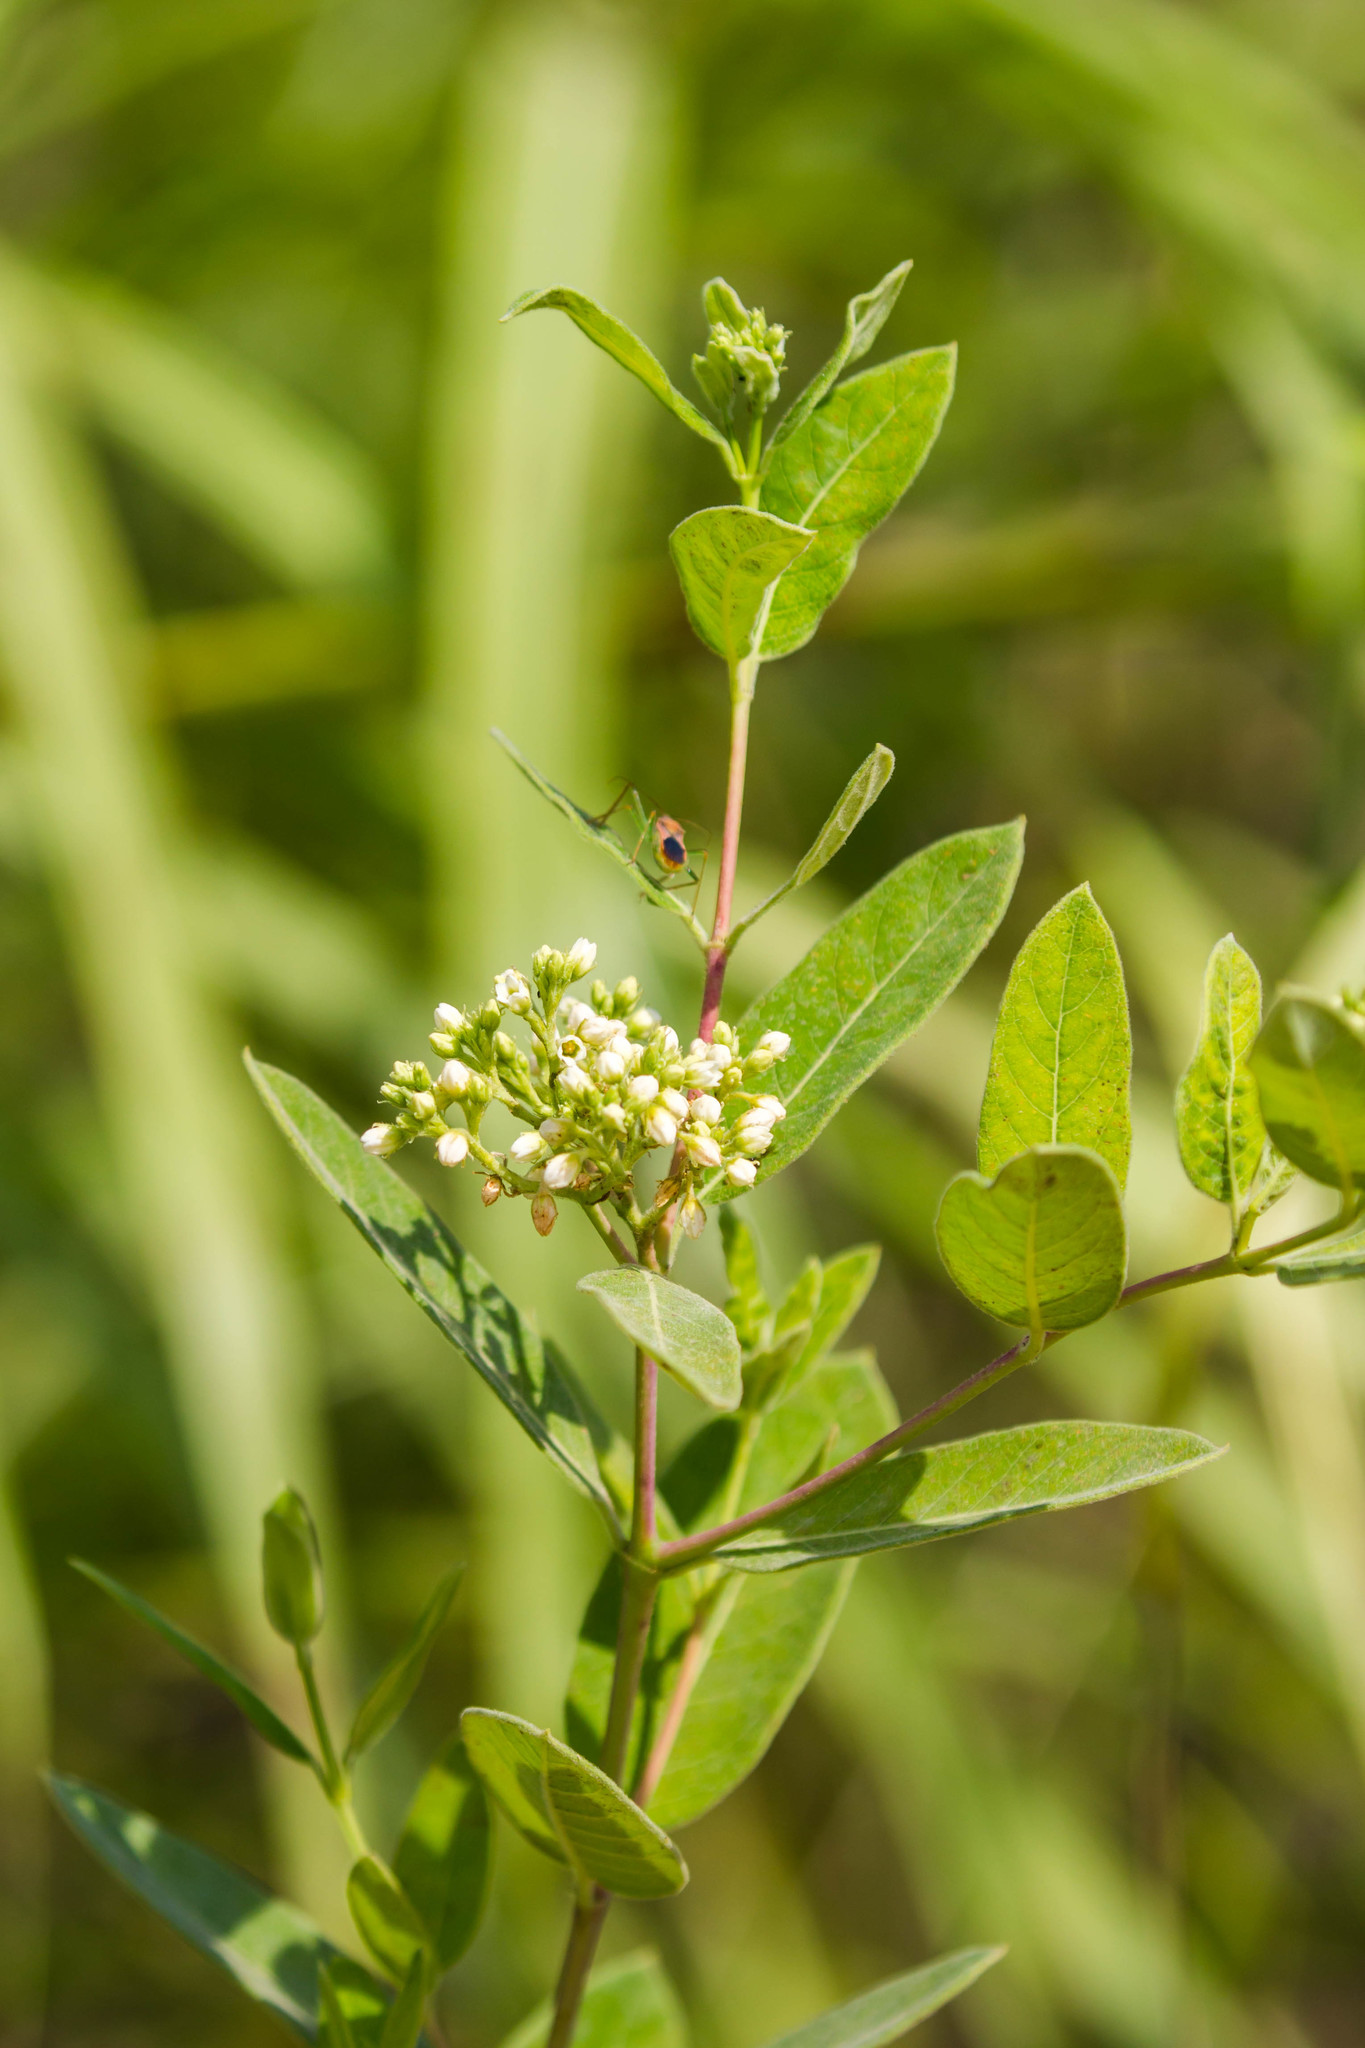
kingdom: Plantae
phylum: Tracheophyta
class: Magnoliopsida
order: Gentianales
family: Apocynaceae
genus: Apocynum
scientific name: Apocynum cannabinum
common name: Hemp dogbane
